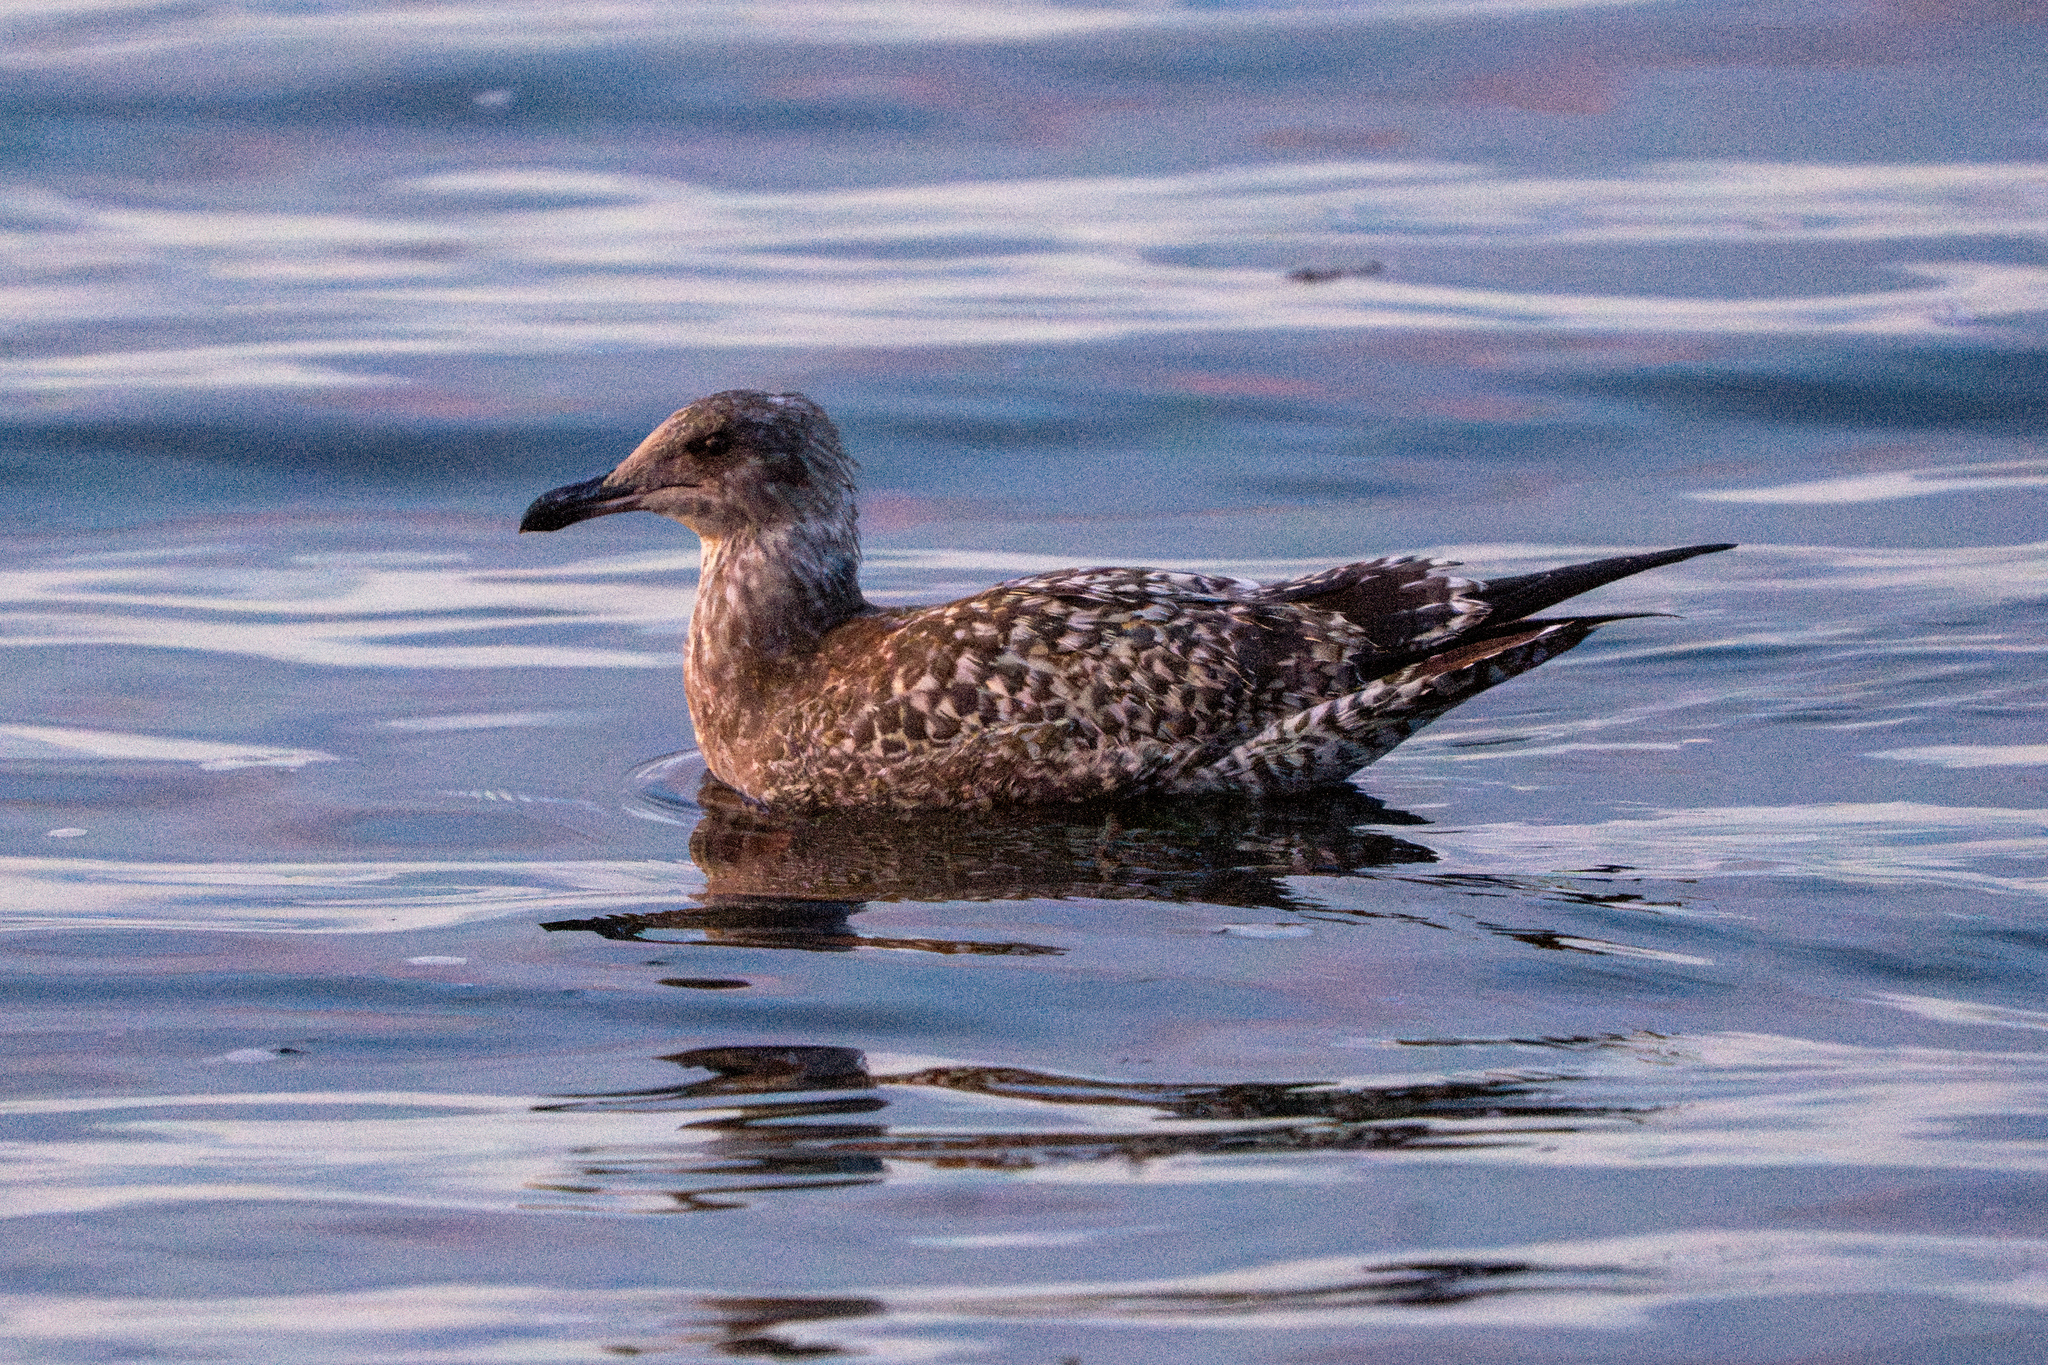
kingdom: Animalia
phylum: Chordata
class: Aves
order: Charadriiformes
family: Laridae
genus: Larus
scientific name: Larus californicus
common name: California gull
